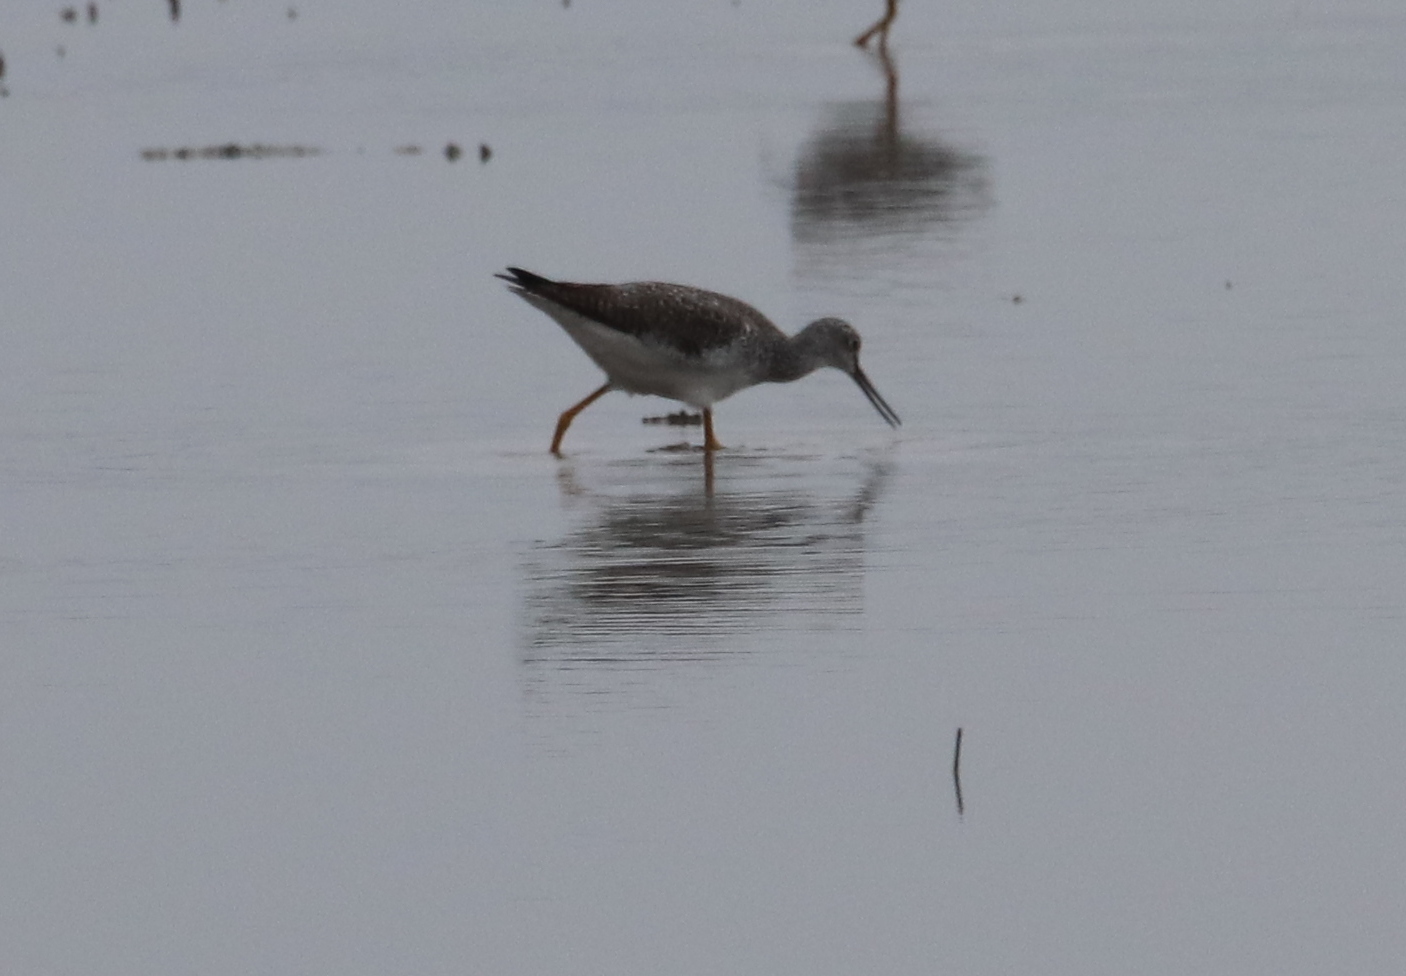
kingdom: Animalia
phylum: Chordata
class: Aves
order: Charadriiformes
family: Scolopacidae
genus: Tringa
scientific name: Tringa melanoleuca
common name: Greater yellowlegs
